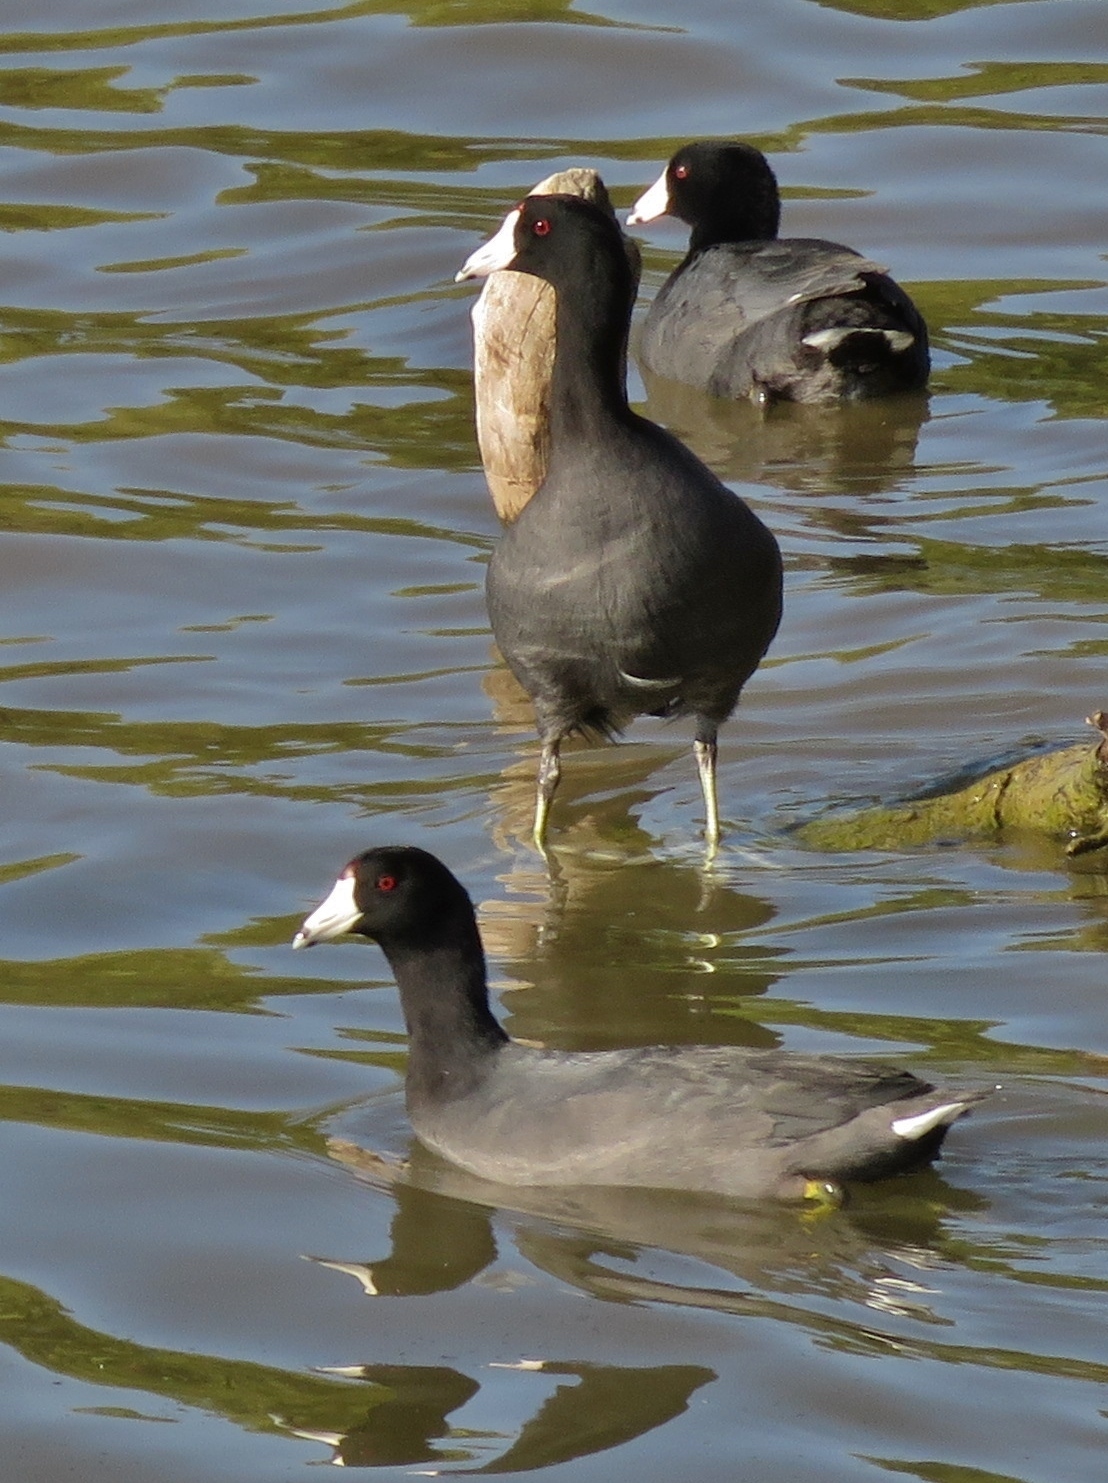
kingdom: Animalia
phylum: Chordata
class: Aves
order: Gruiformes
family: Rallidae
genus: Fulica
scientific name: Fulica americana
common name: American coot
